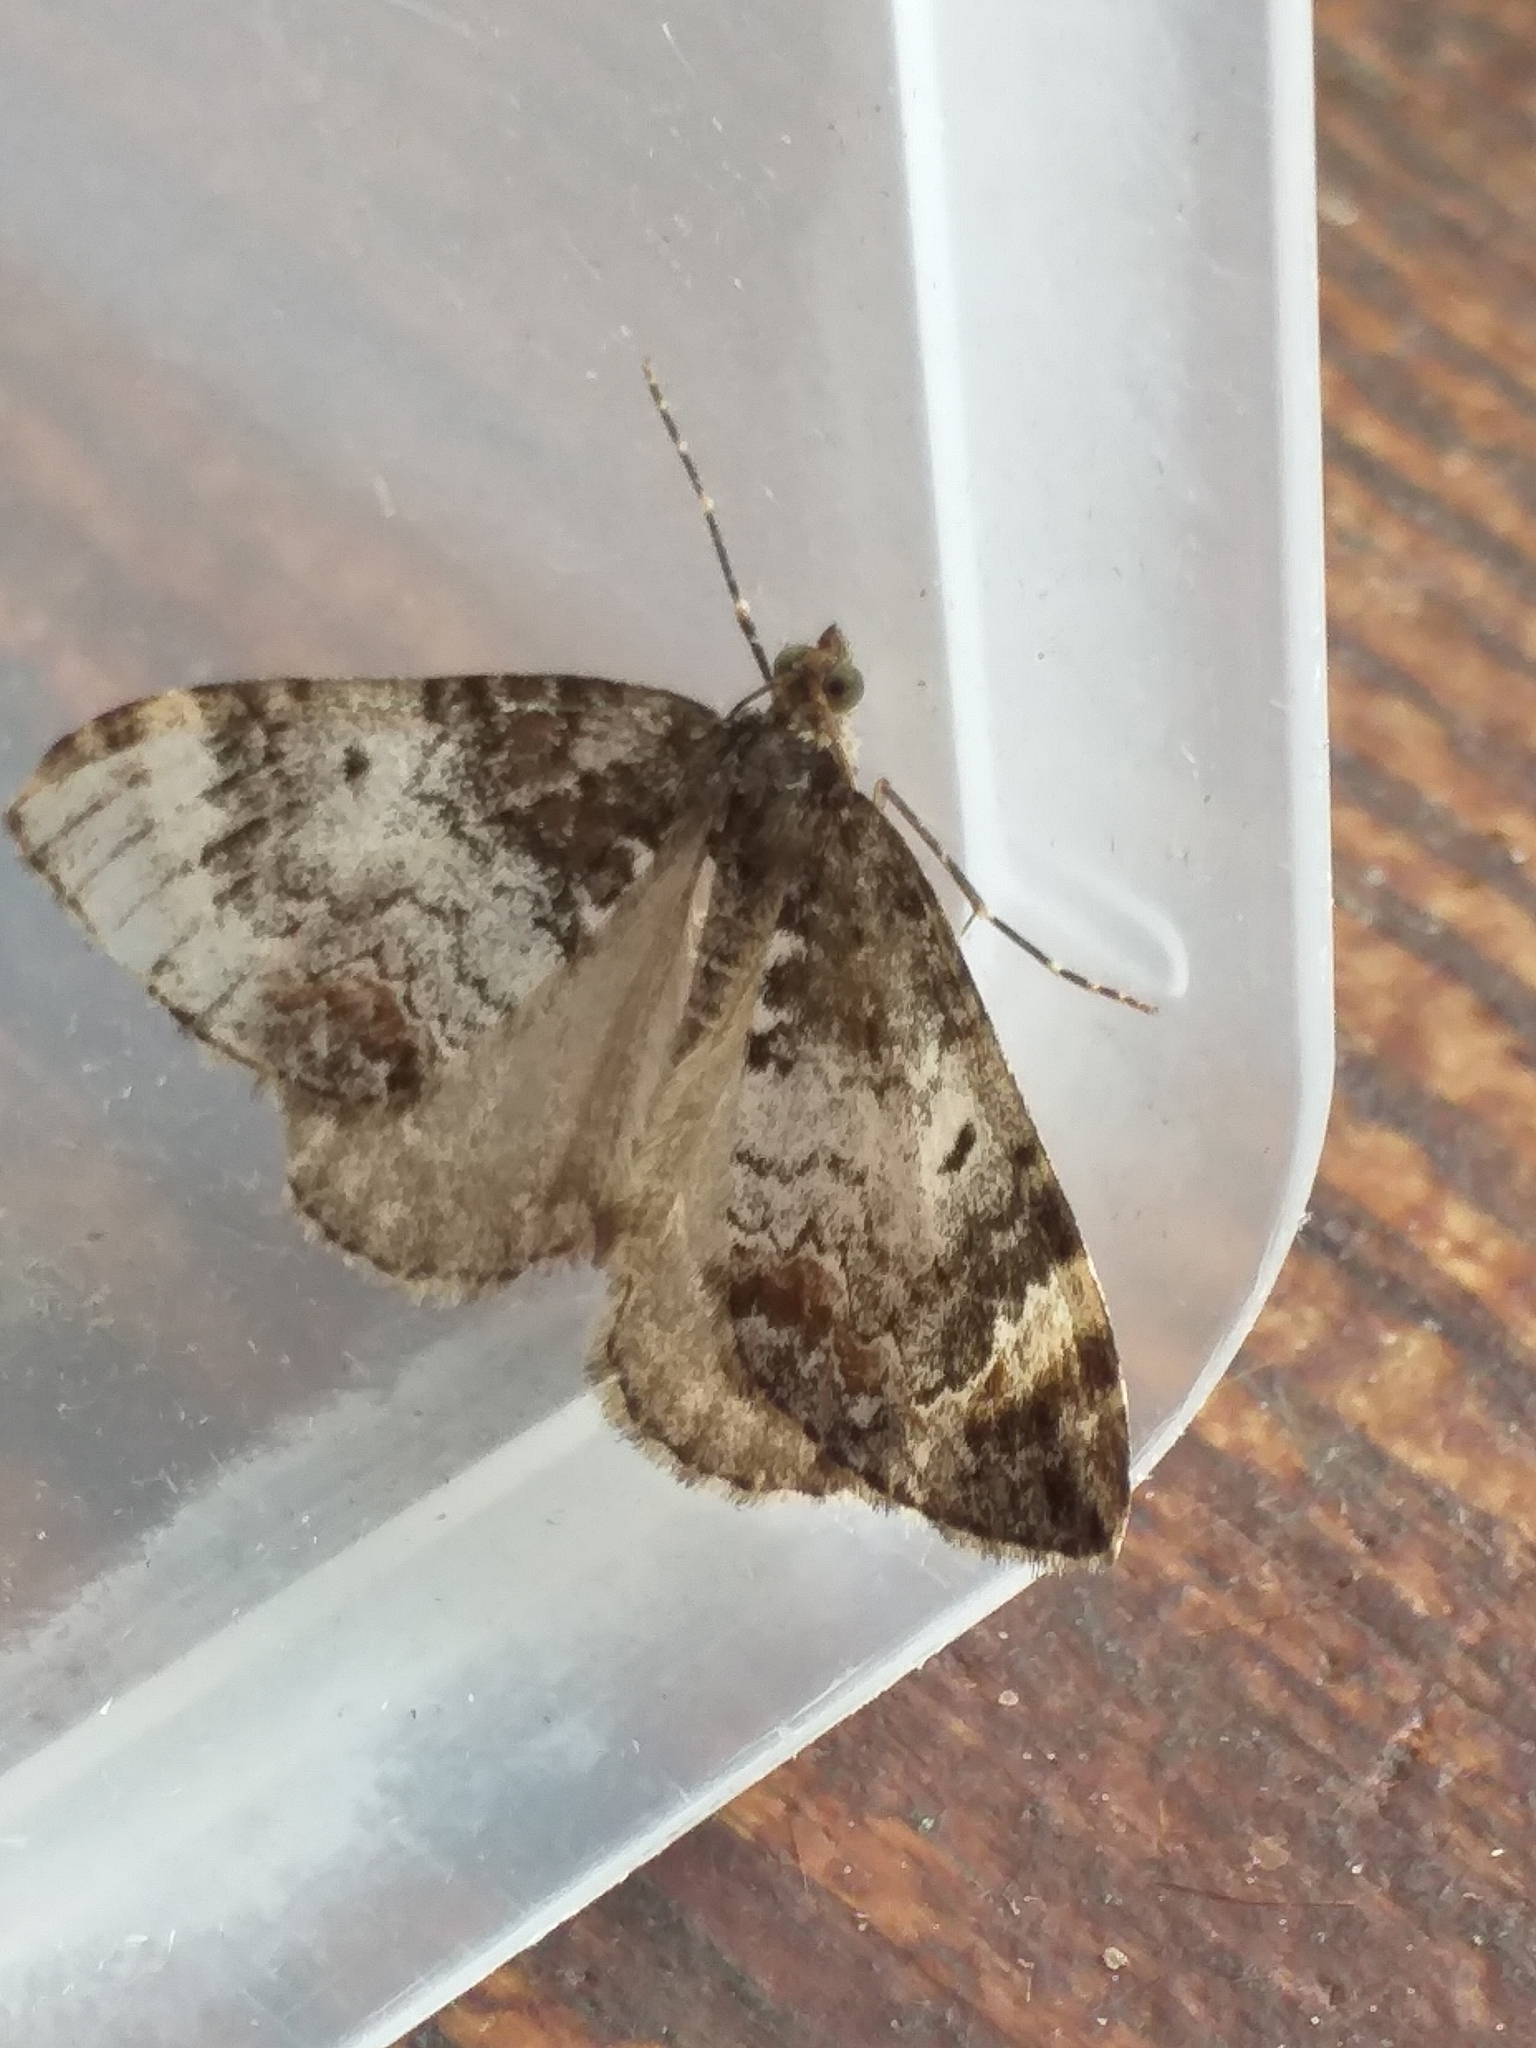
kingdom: Animalia
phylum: Arthropoda
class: Insecta
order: Lepidoptera
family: Geometridae
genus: Dysstroma
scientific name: Dysstroma truncata
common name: Common marbled carpet
